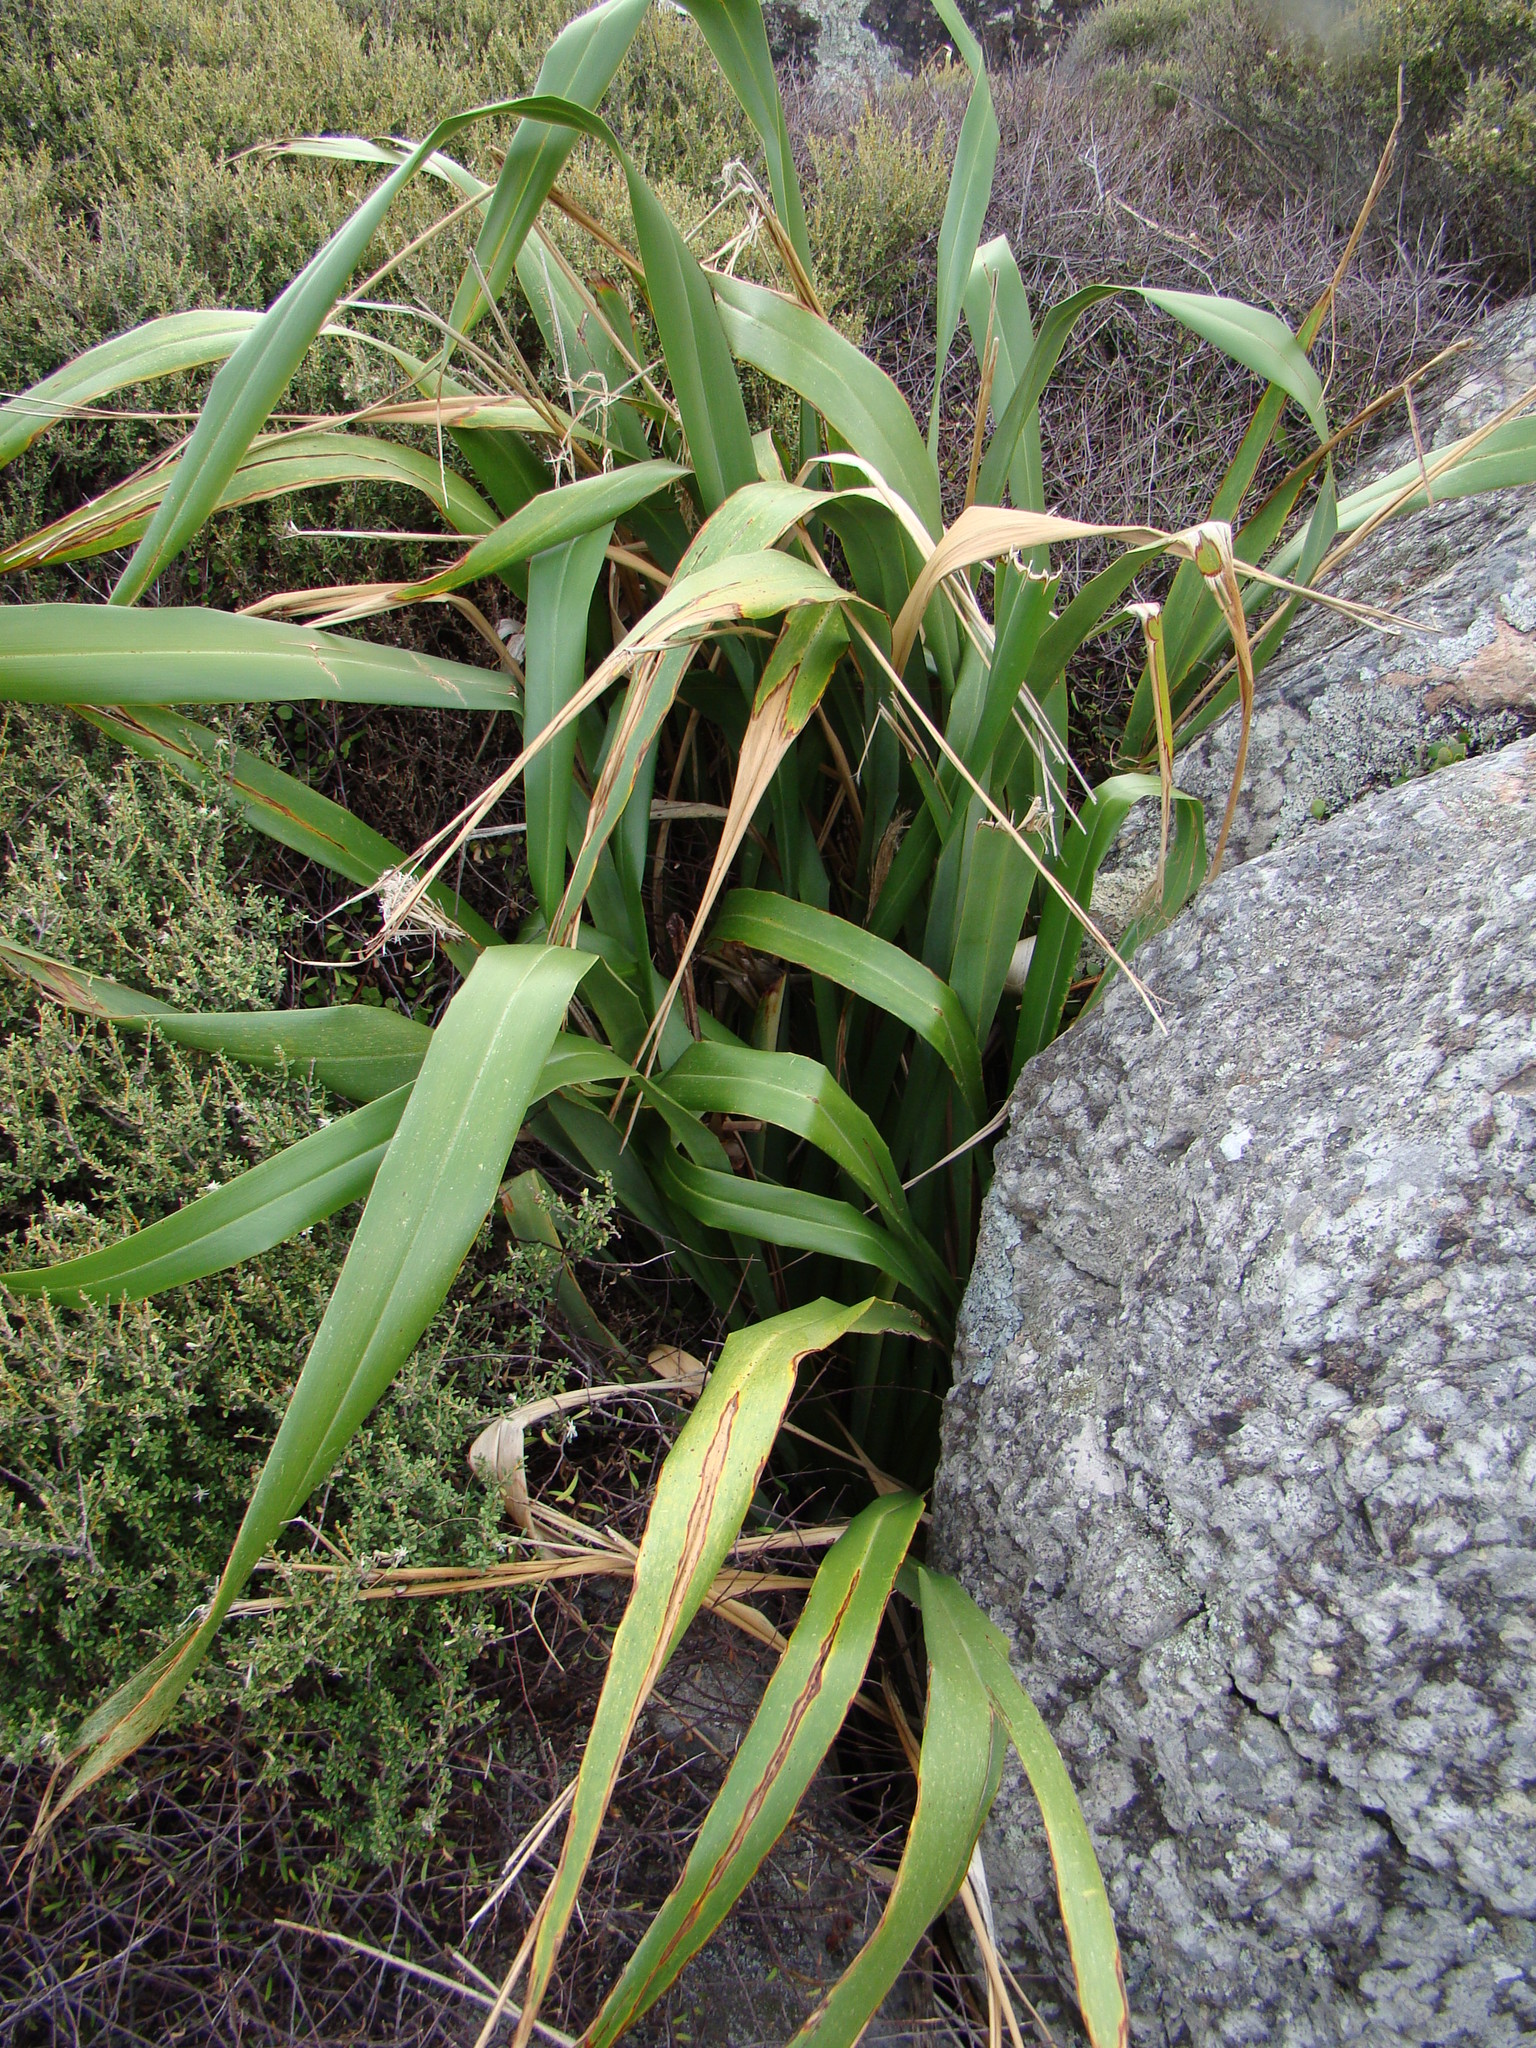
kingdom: Plantae
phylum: Tracheophyta
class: Liliopsida
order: Asparagales
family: Asphodelaceae
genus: Phormium
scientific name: Phormium colensoi
